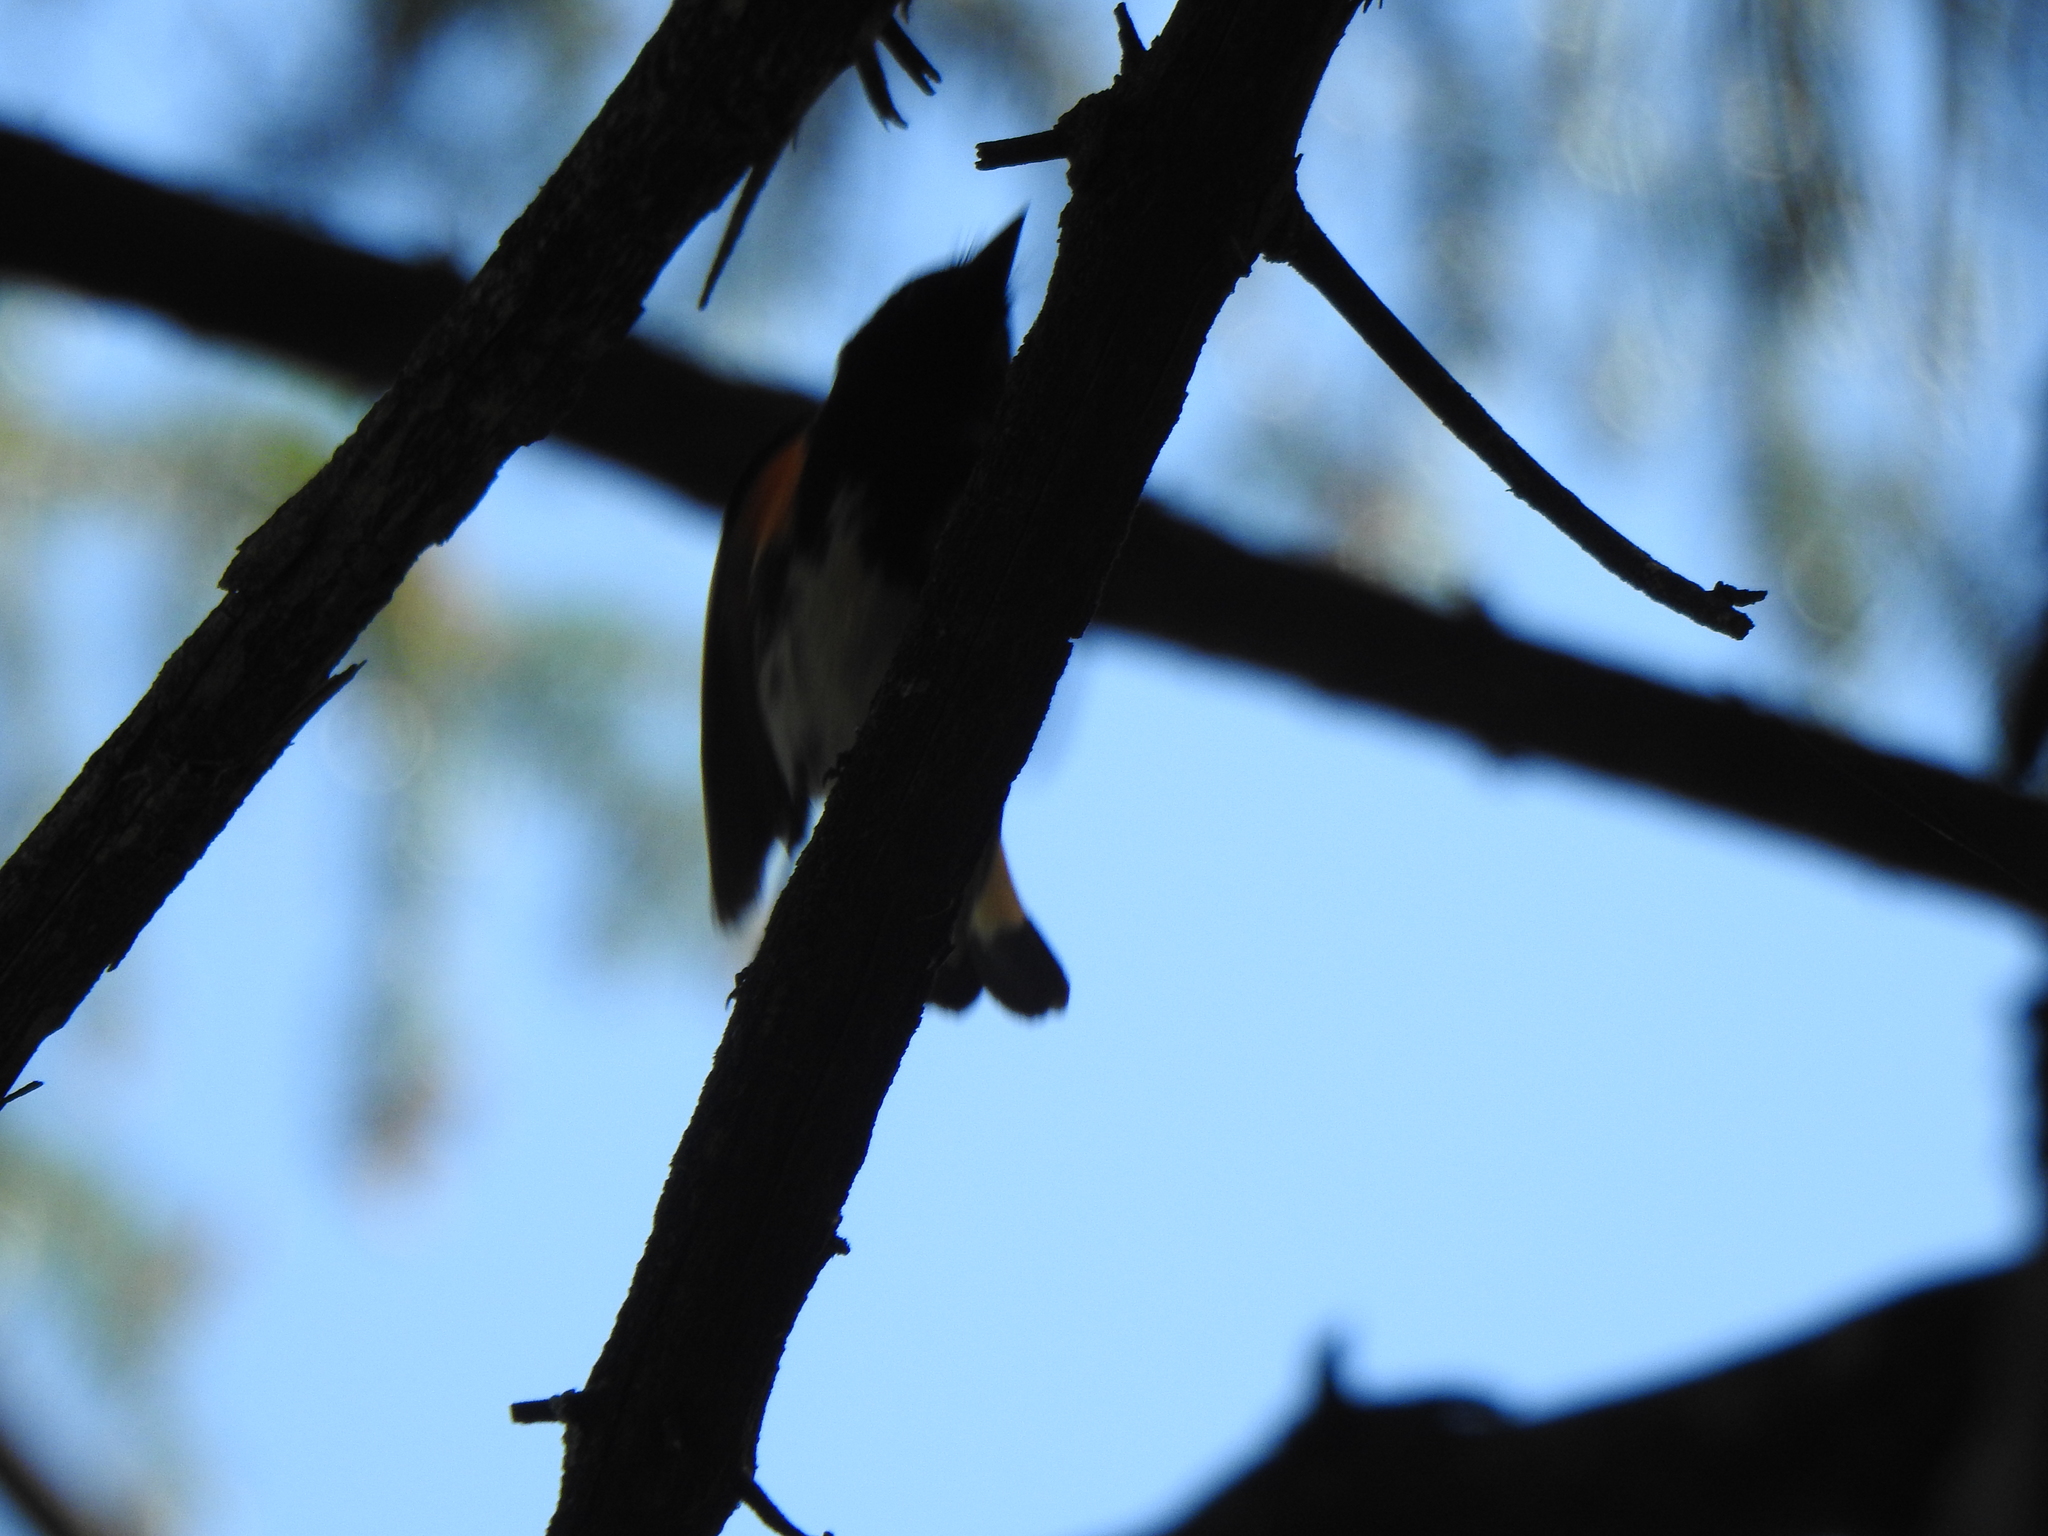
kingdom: Animalia
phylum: Chordata
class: Aves
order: Passeriformes
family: Parulidae
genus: Setophaga
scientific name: Setophaga ruticilla
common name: American redstart
